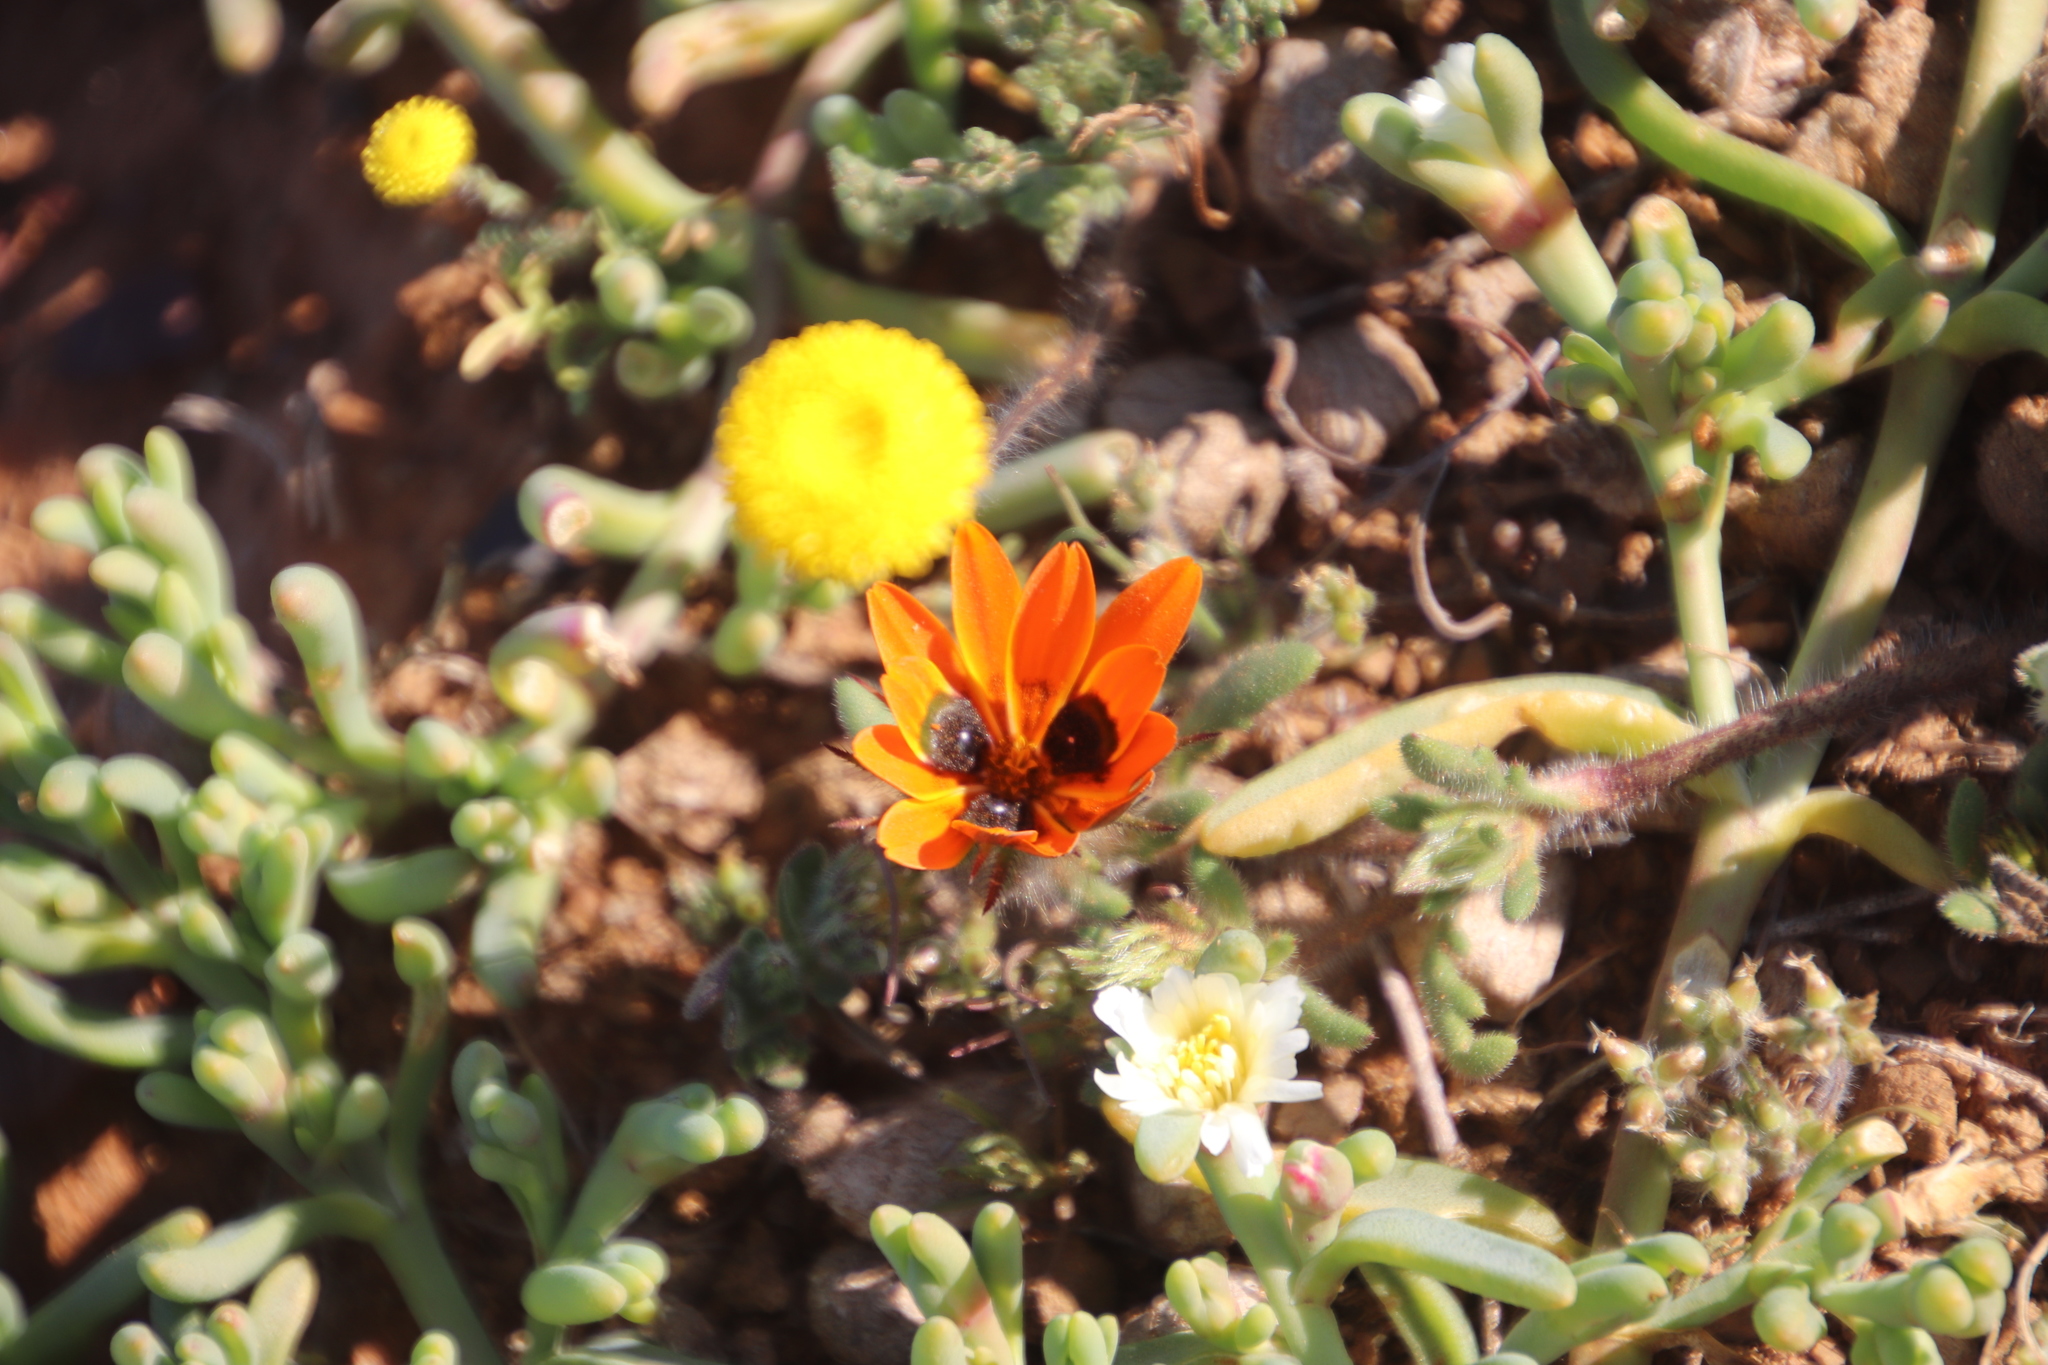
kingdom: Plantae
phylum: Tracheophyta
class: Magnoliopsida
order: Asterales
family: Asteraceae
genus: Gorteria
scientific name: Gorteria diffusa
